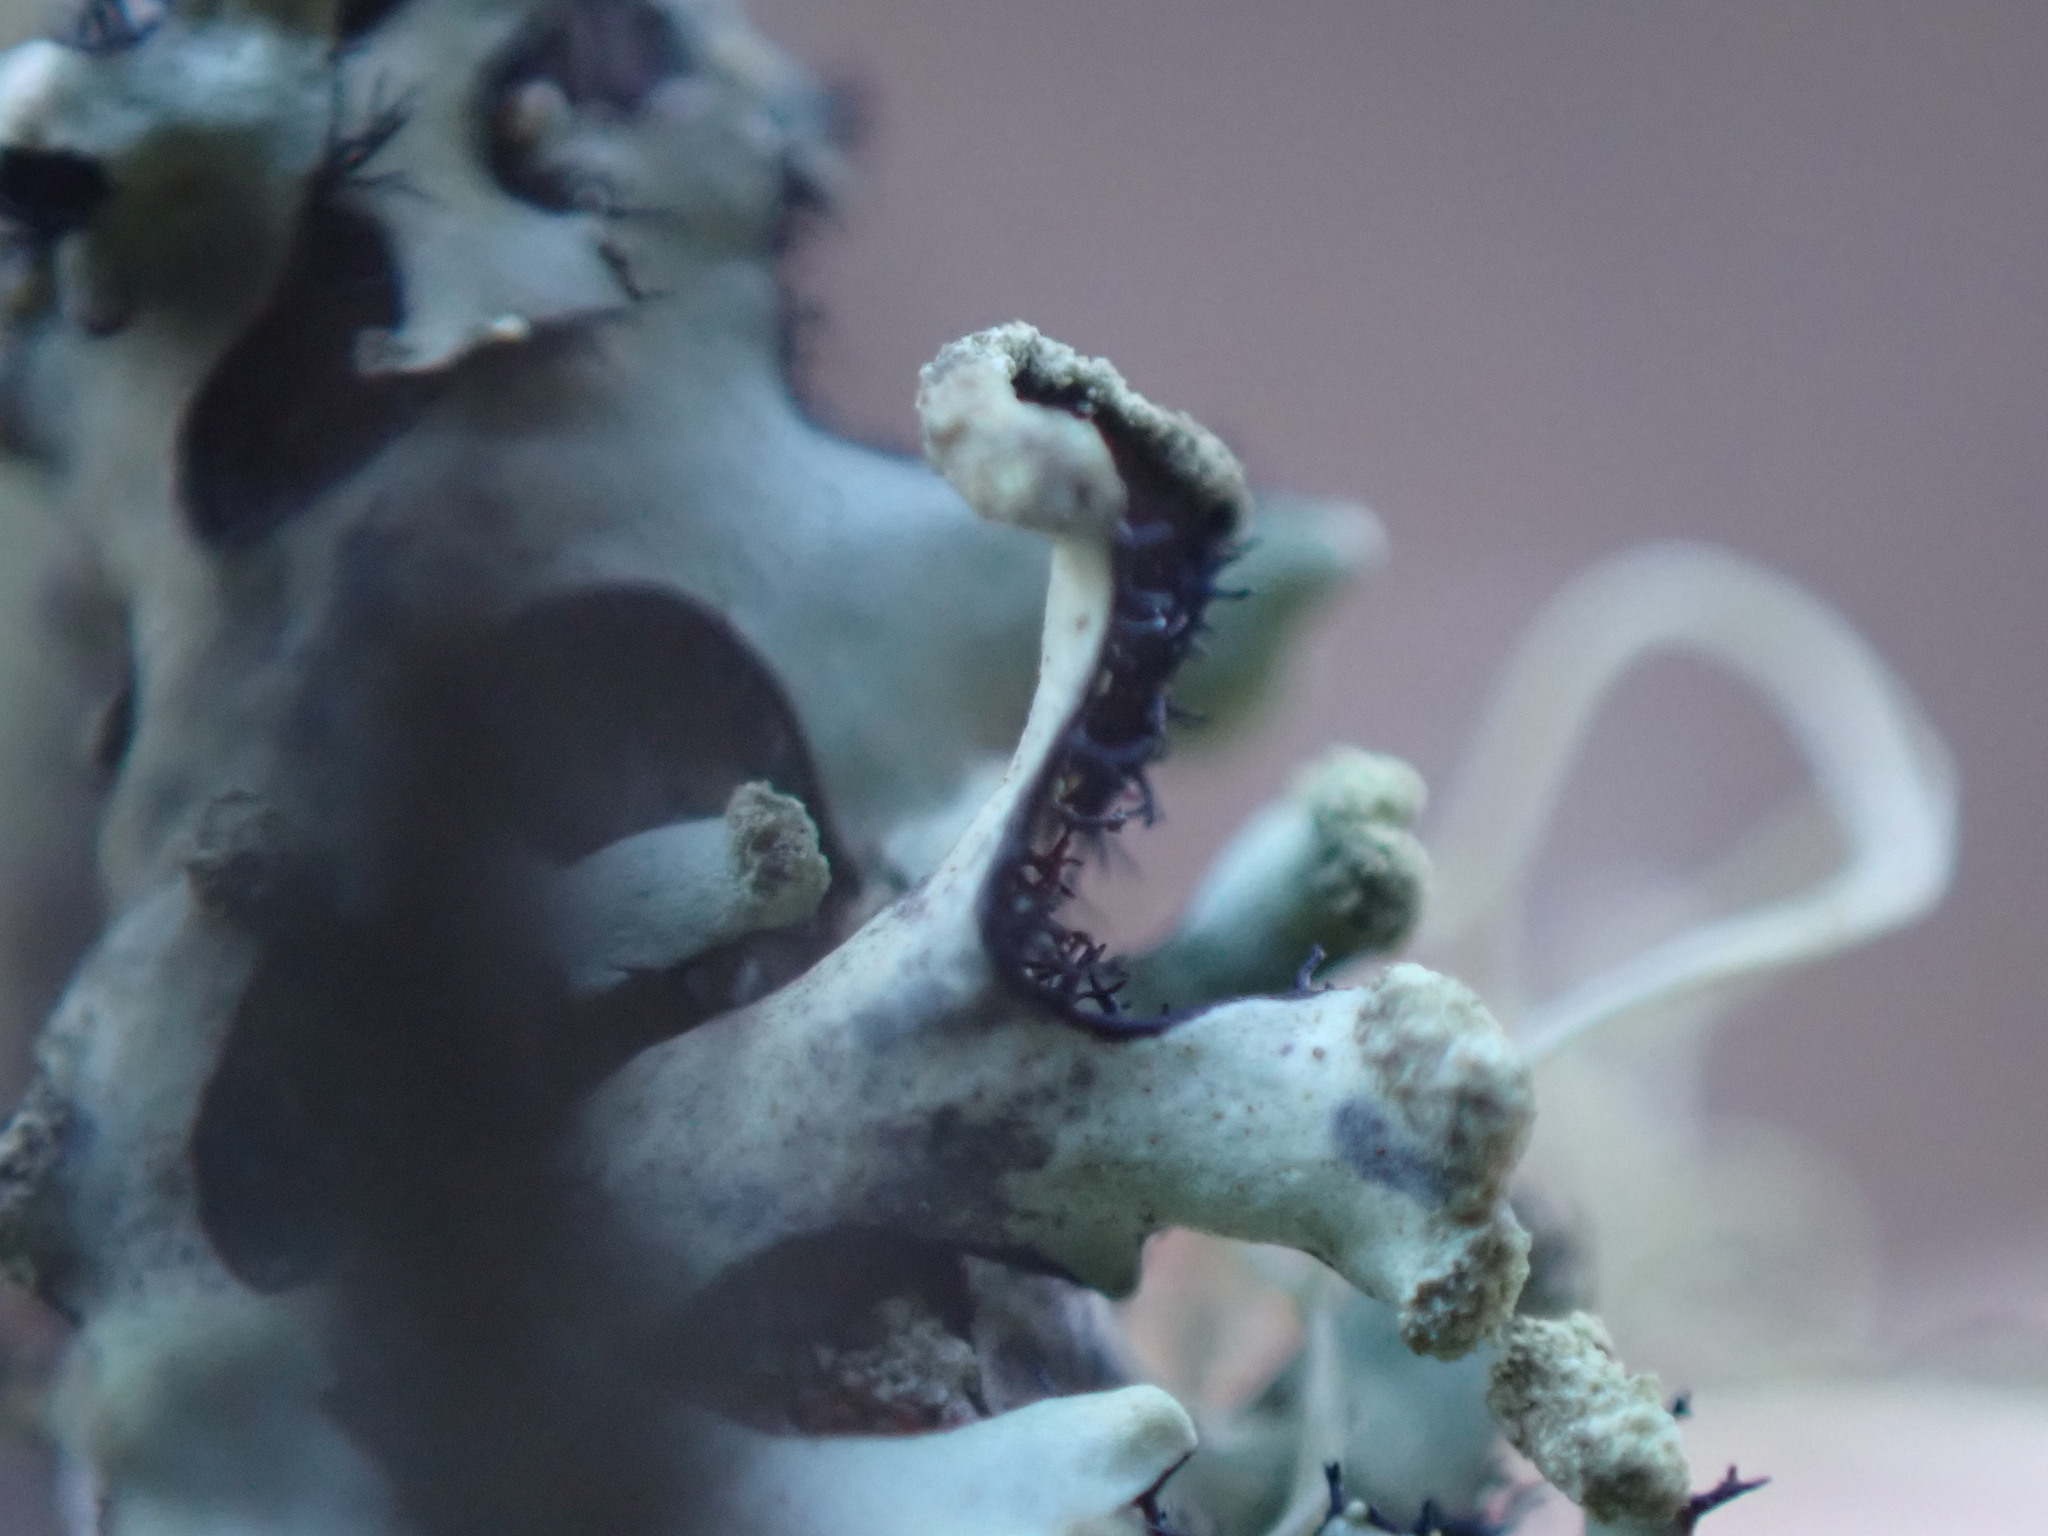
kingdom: Fungi
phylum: Ascomycota
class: Lecanoromycetes
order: Lecanorales
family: Parmeliaceae
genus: Hypotrachyna
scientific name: Hypotrachyna sinuosa
